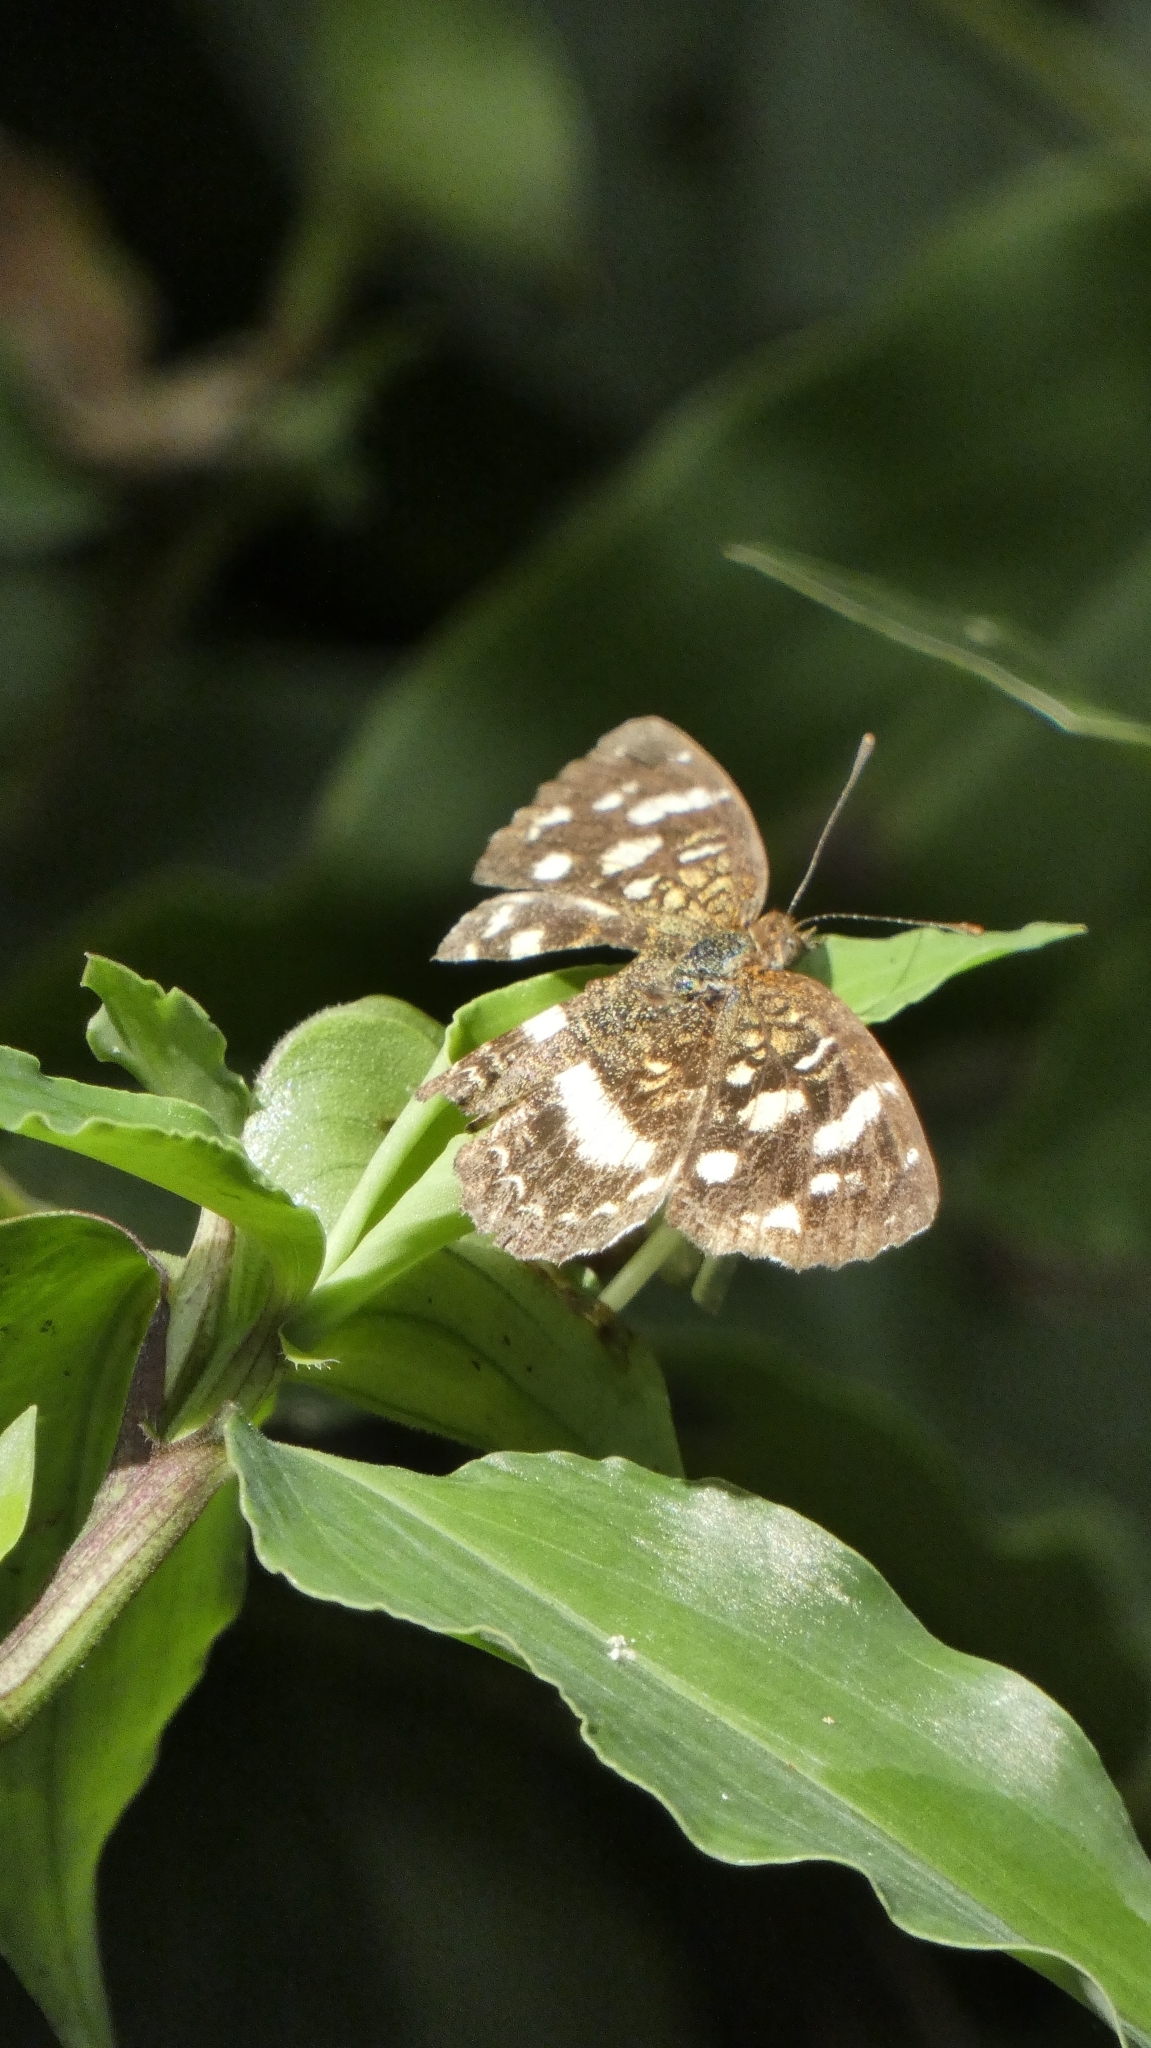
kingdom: Animalia
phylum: Arthropoda
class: Insecta
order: Lepidoptera
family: Nymphalidae
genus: Anthanassa
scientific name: Anthanassa tulcis
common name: Pale-banded crescent
